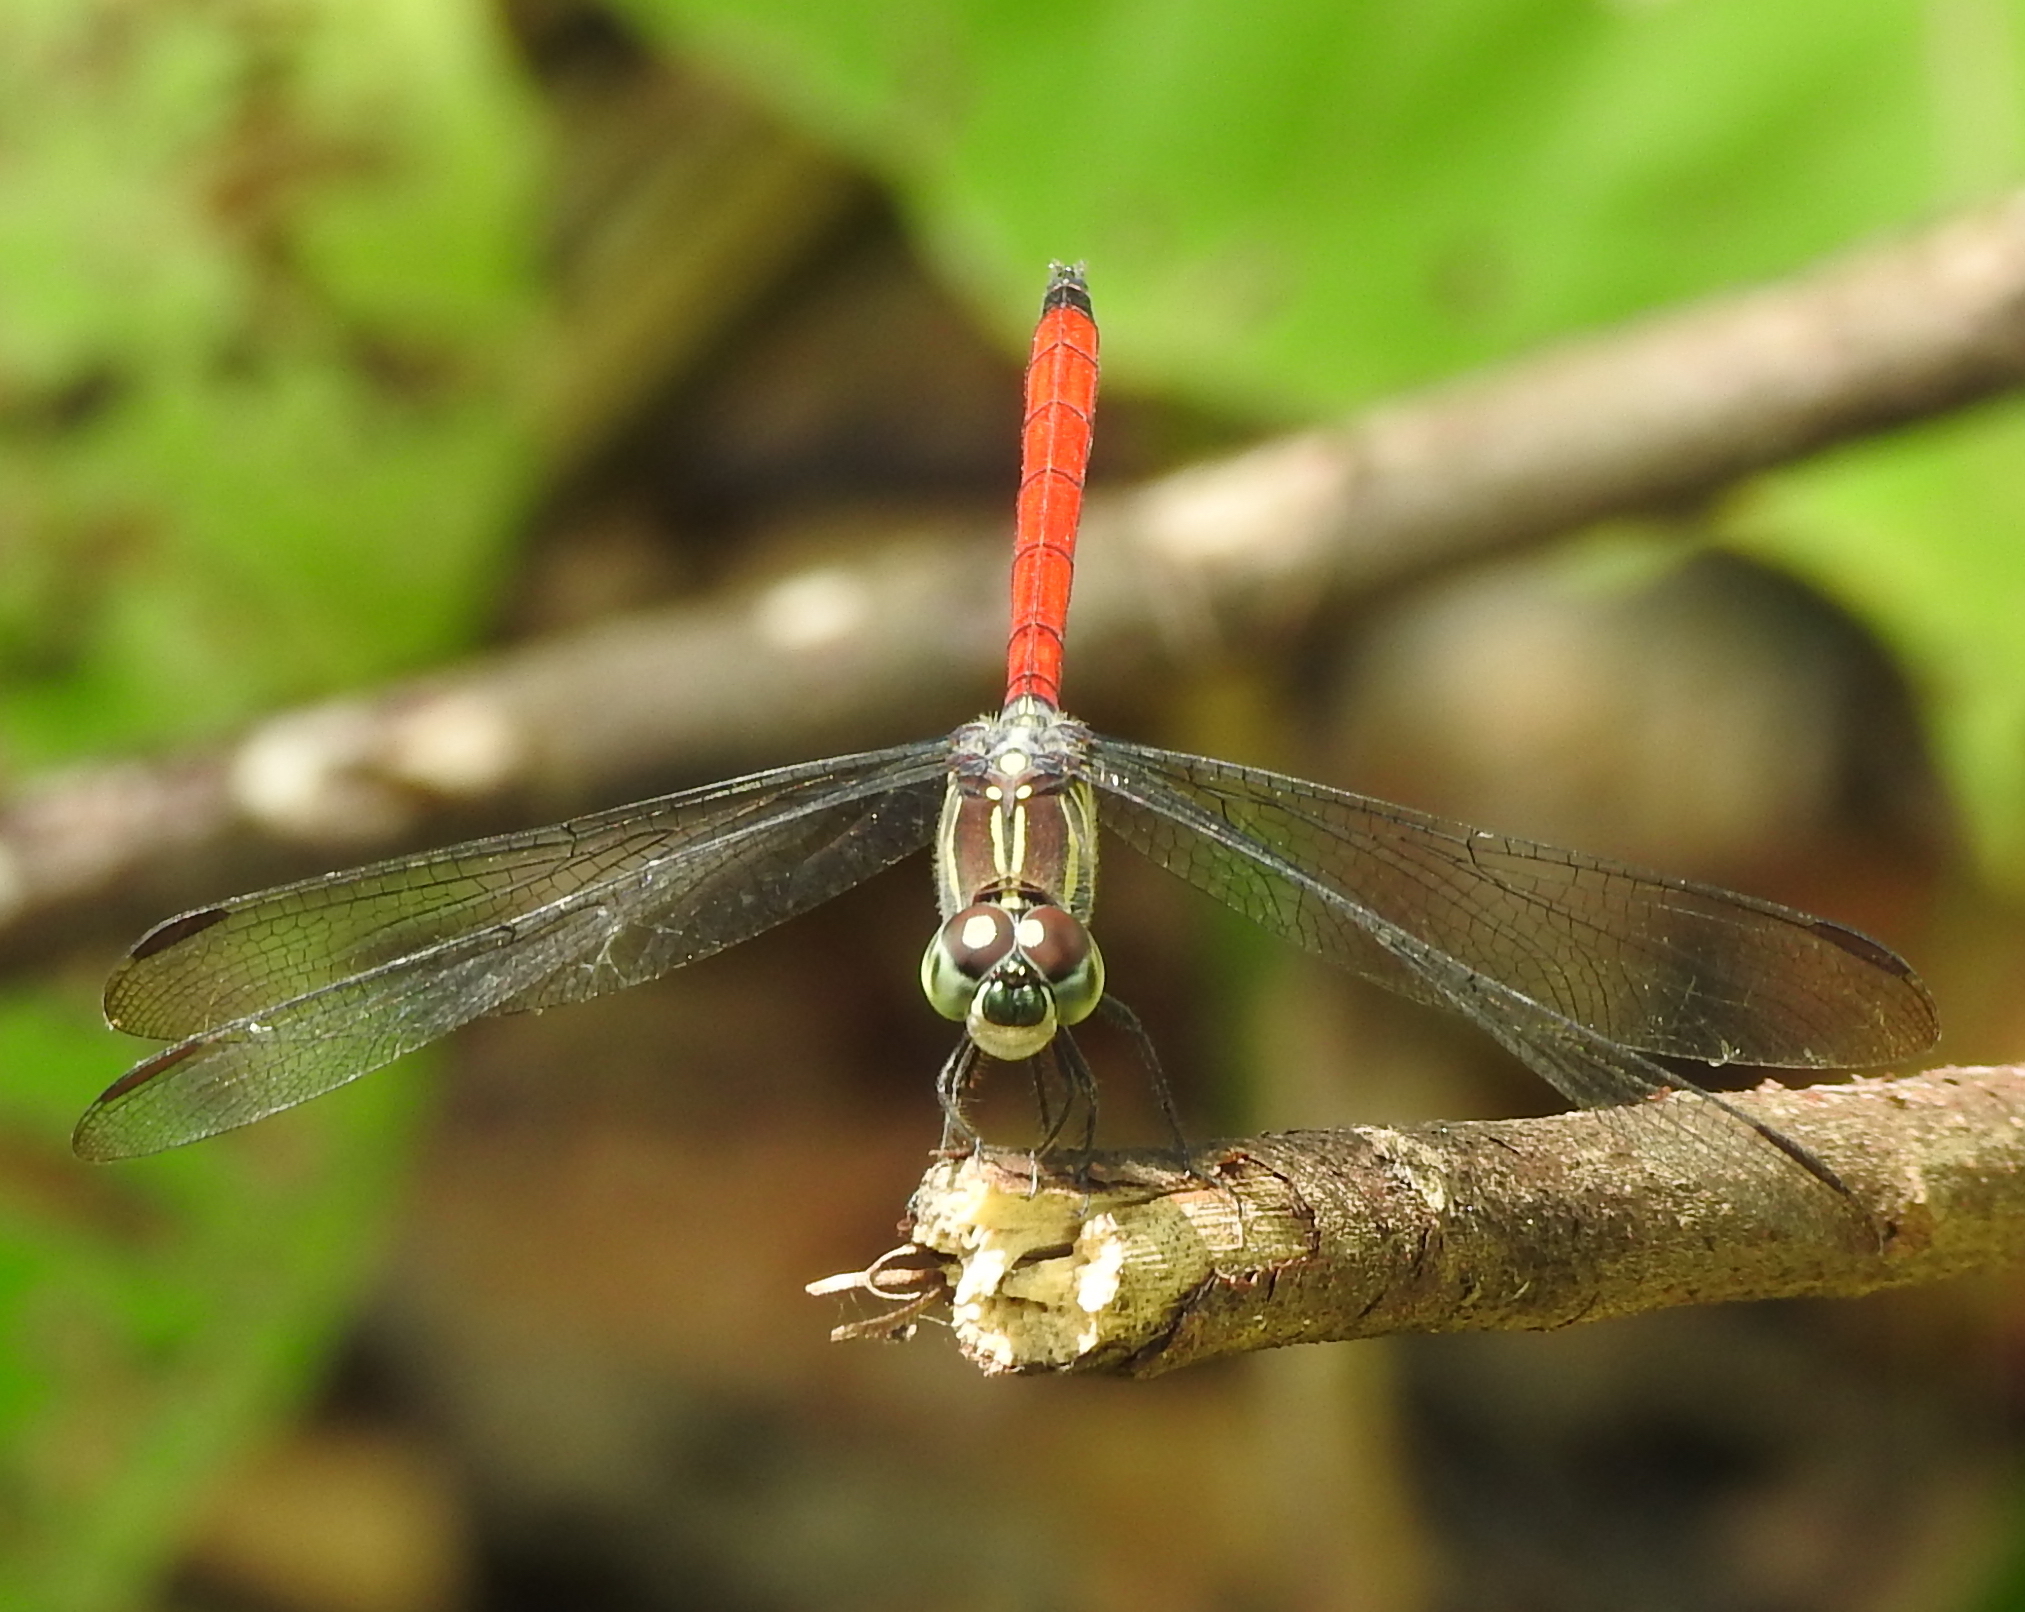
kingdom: Animalia
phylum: Arthropoda
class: Insecta
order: Odonata
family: Libellulidae
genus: Lathrecista
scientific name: Lathrecista asiatica
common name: Scarlet grenadier
